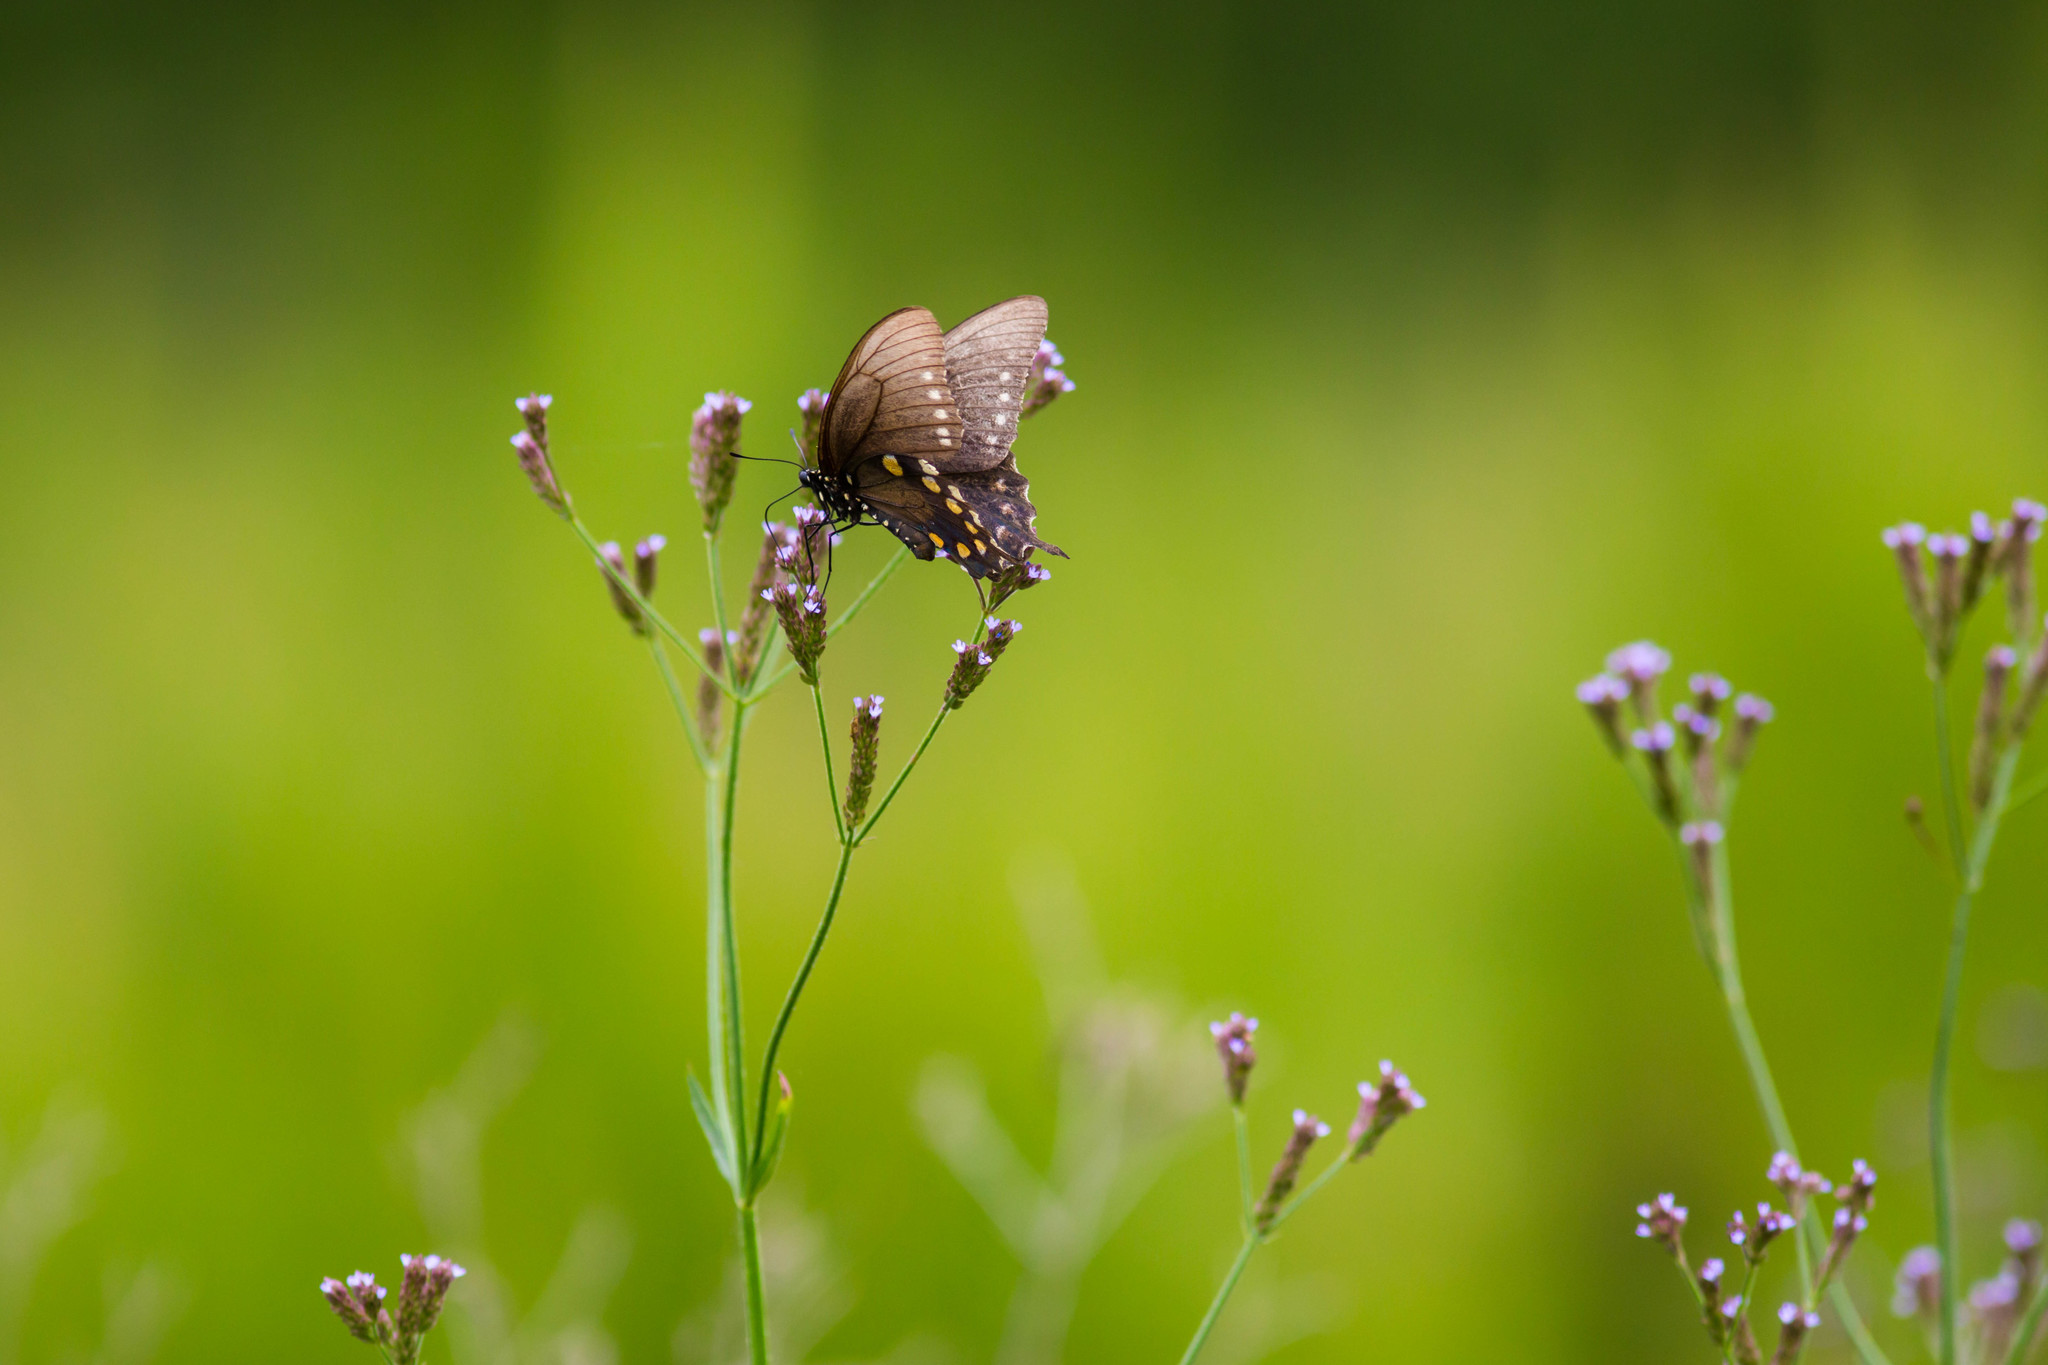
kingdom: Animalia
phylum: Arthropoda
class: Insecta
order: Lepidoptera
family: Papilionidae
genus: Battus
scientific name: Battus philenor
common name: Pipevine swallowtail
